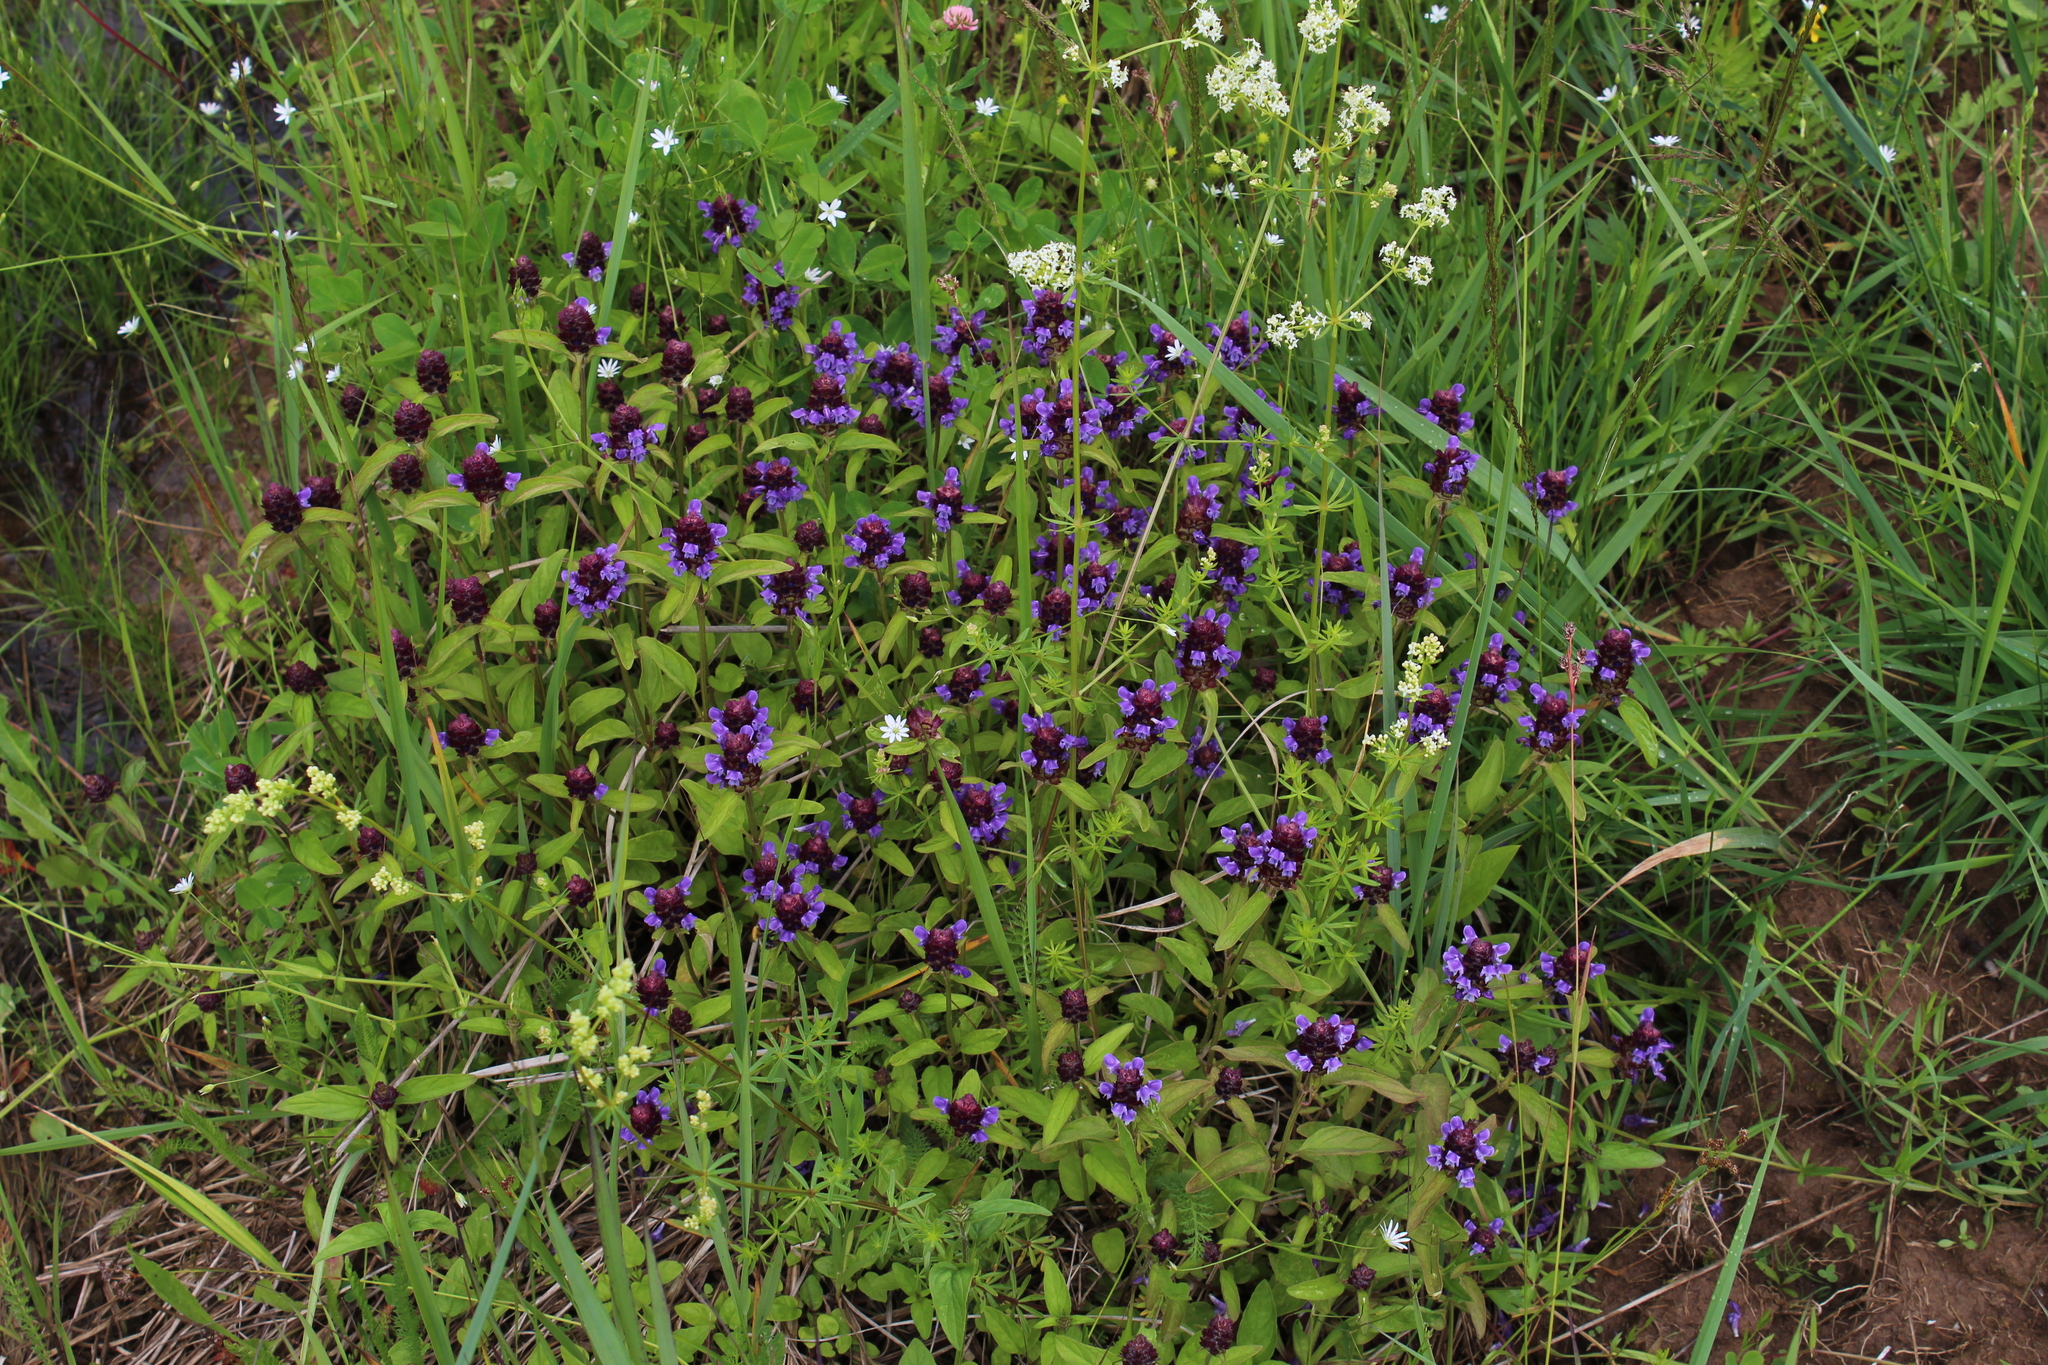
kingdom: Plantae
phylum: Tracheophyta
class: Magnoliopsida
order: Lamiales
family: Lamiaceae
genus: Prunella
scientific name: Prunella vulgaris
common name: Heal-all
